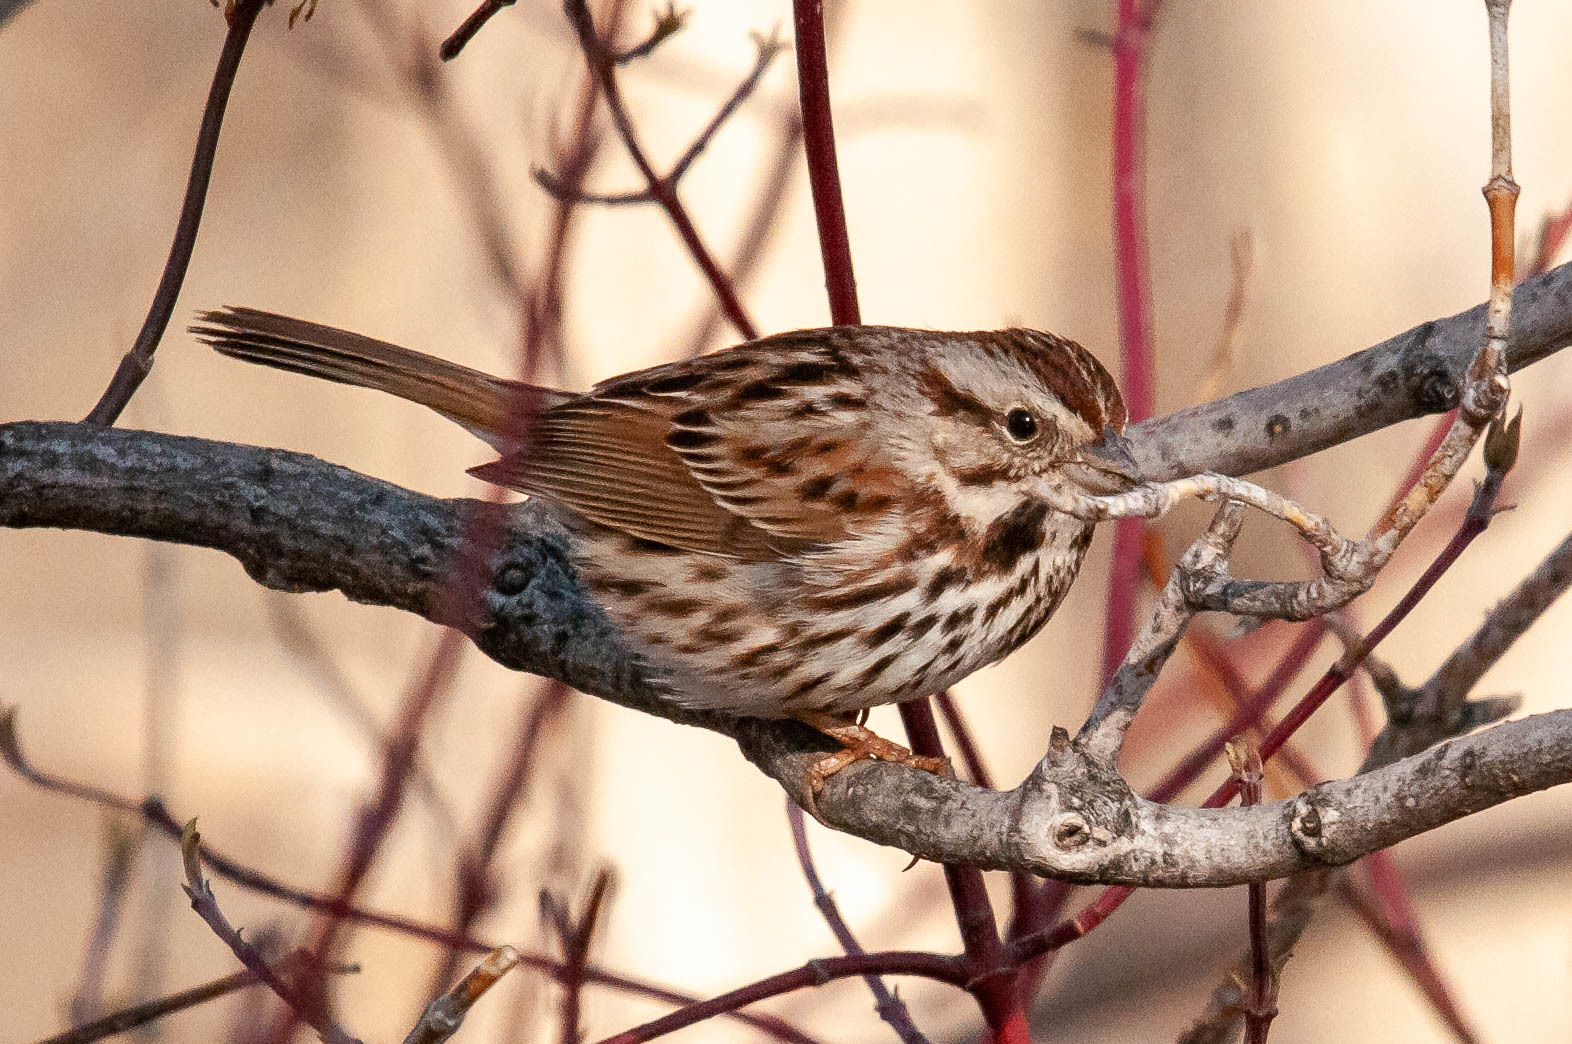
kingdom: Animalia
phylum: Chordata
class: Aves
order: Passeriformes
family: Passerellidae
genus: Melospiza
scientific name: Melospiza melodia
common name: Song sparrow
